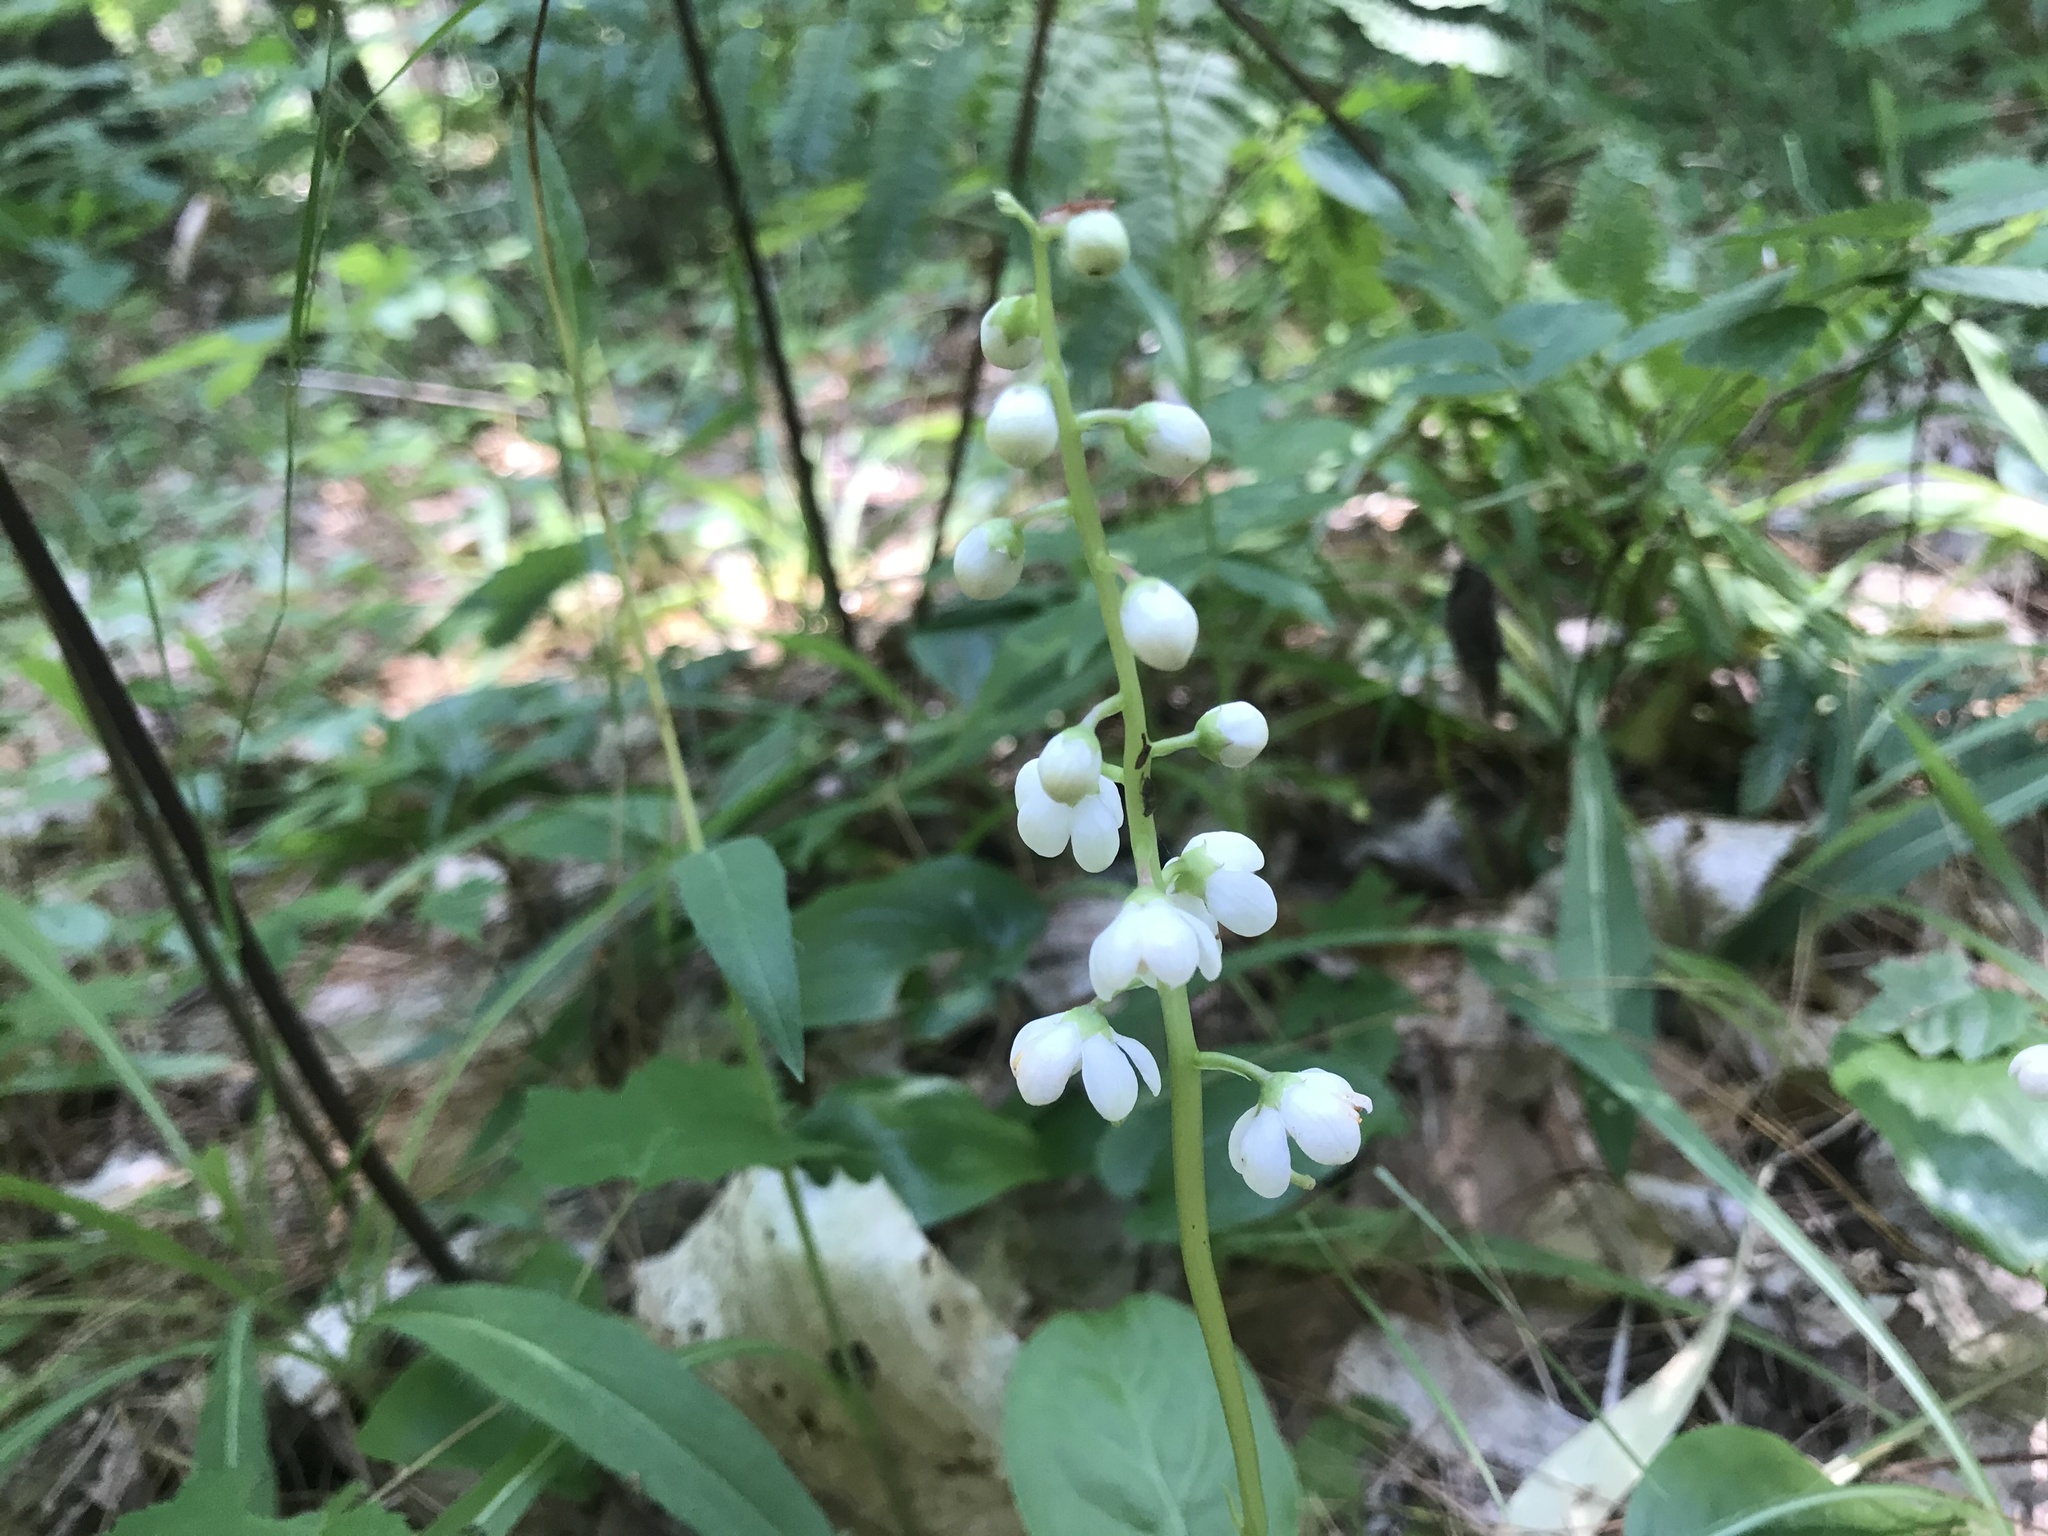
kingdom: Plantae
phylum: Tracheophyta
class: Magnoliopsida
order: Ericales
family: Ericaceae
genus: Pyrola
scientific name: Pyrola elliptica
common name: Shinleaf
